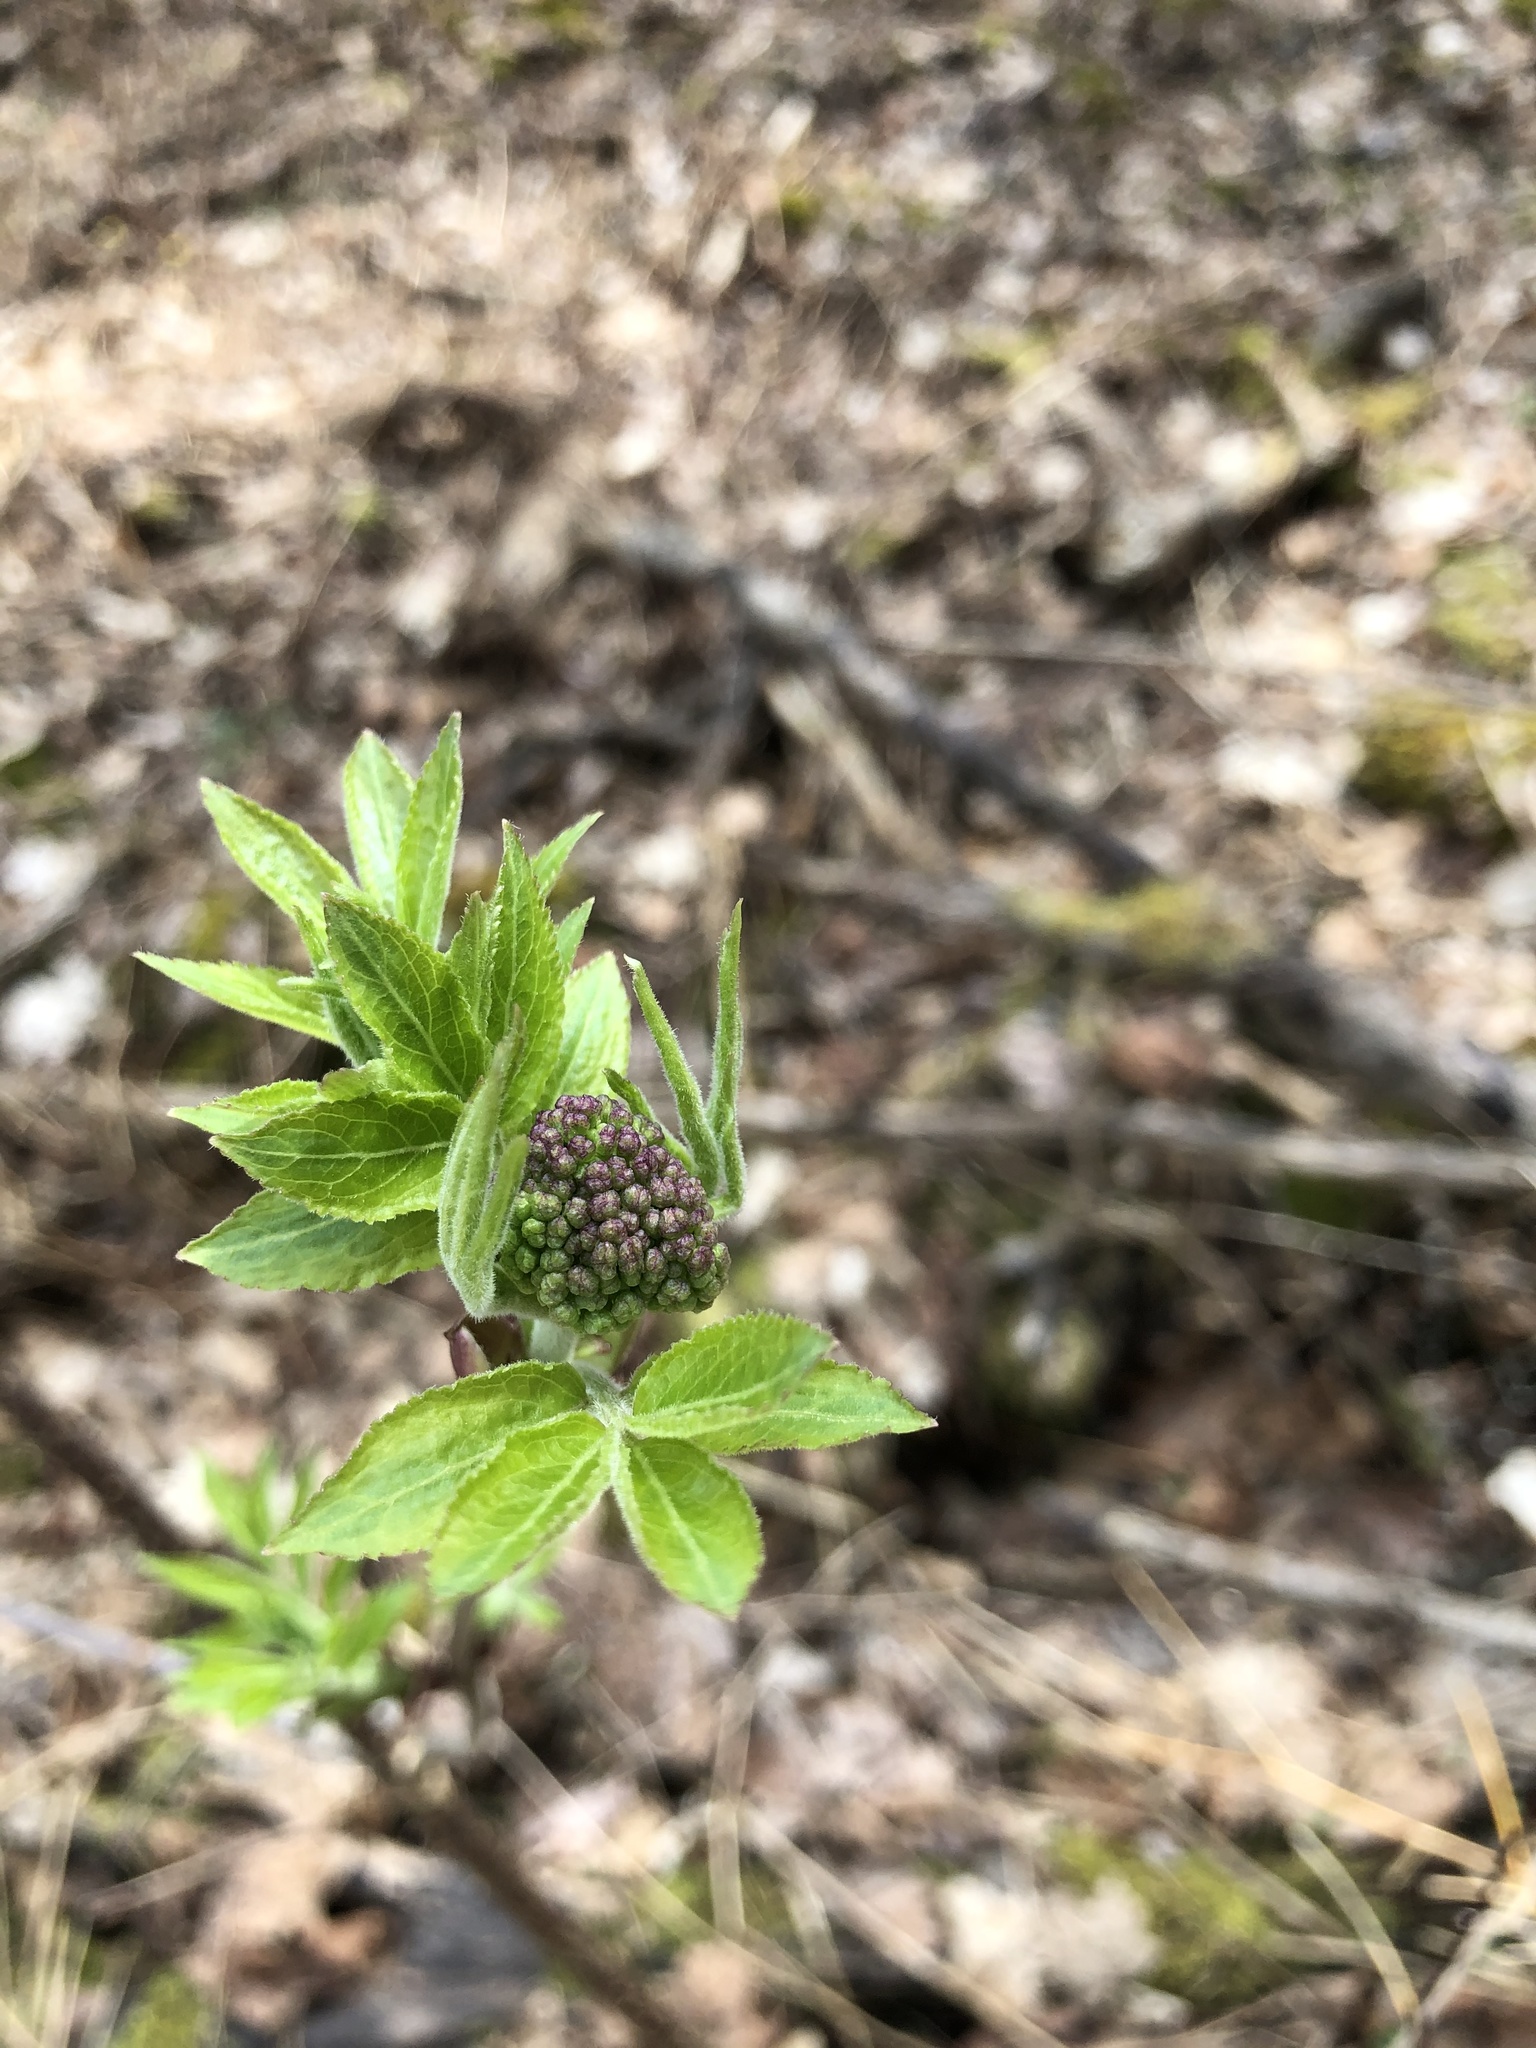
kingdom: Plantae
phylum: Tracheophyta
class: Magnoliopsida
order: Dipsacales
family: Viburnaceae
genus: Sambucus
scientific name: Sambucus racemosa
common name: Red-berried elder
